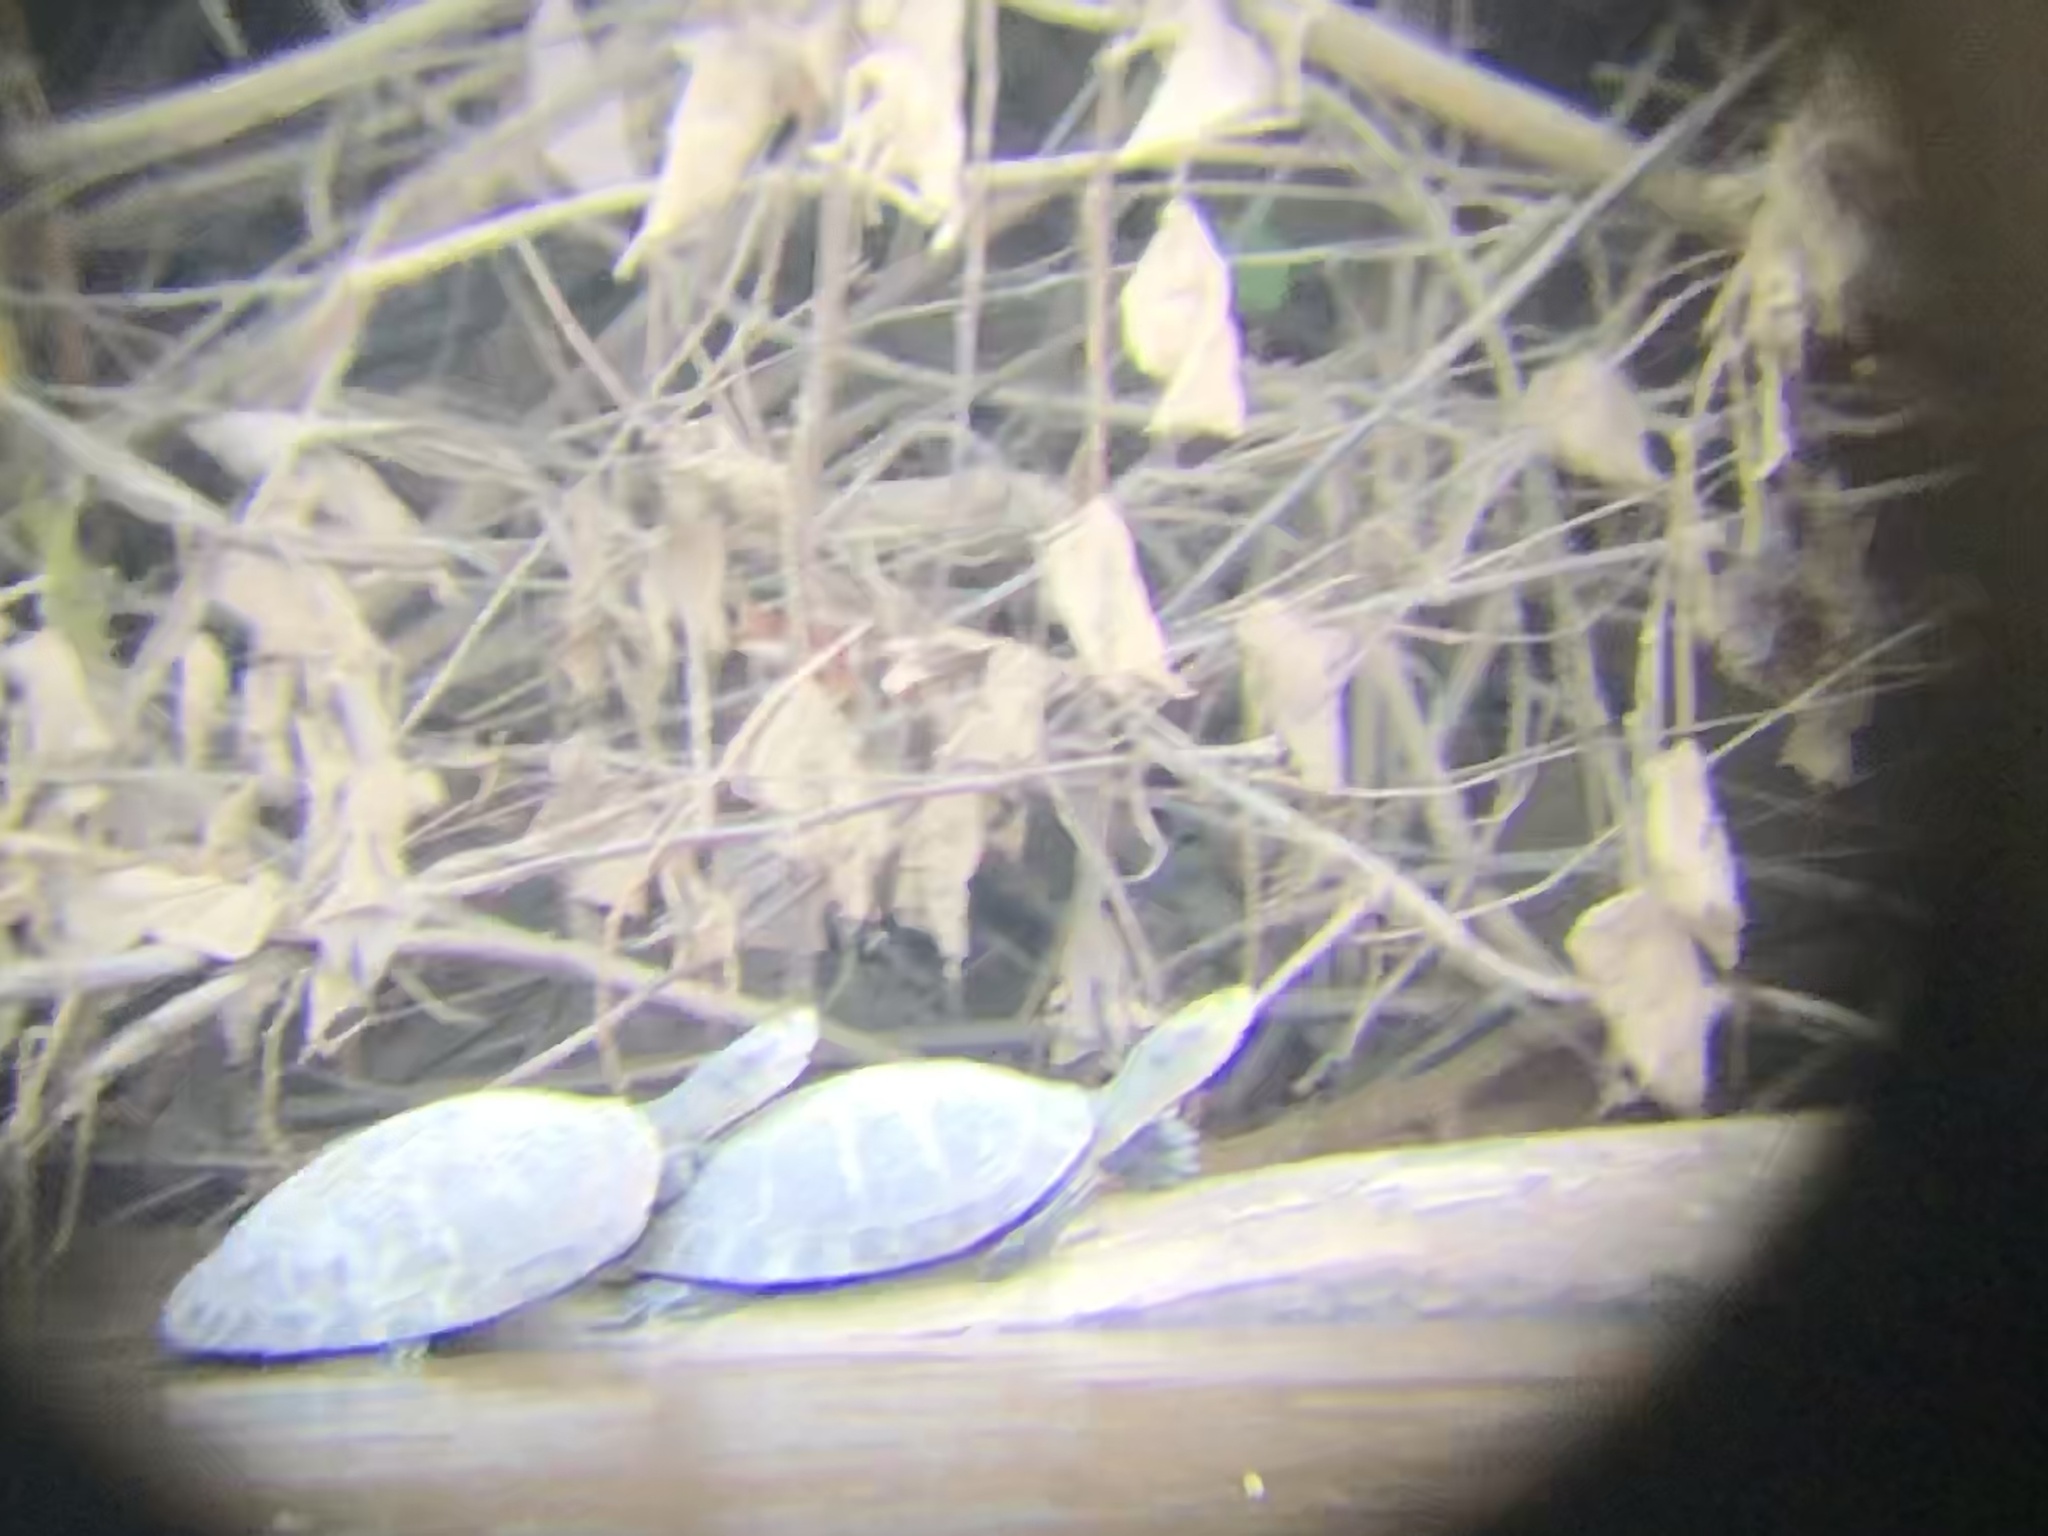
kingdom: Animalia
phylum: Chordata
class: Testudines
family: Podocnemididae
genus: Podocnemis
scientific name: Podocnemis unifilis
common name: Yellow-spotted amazon river turtle
